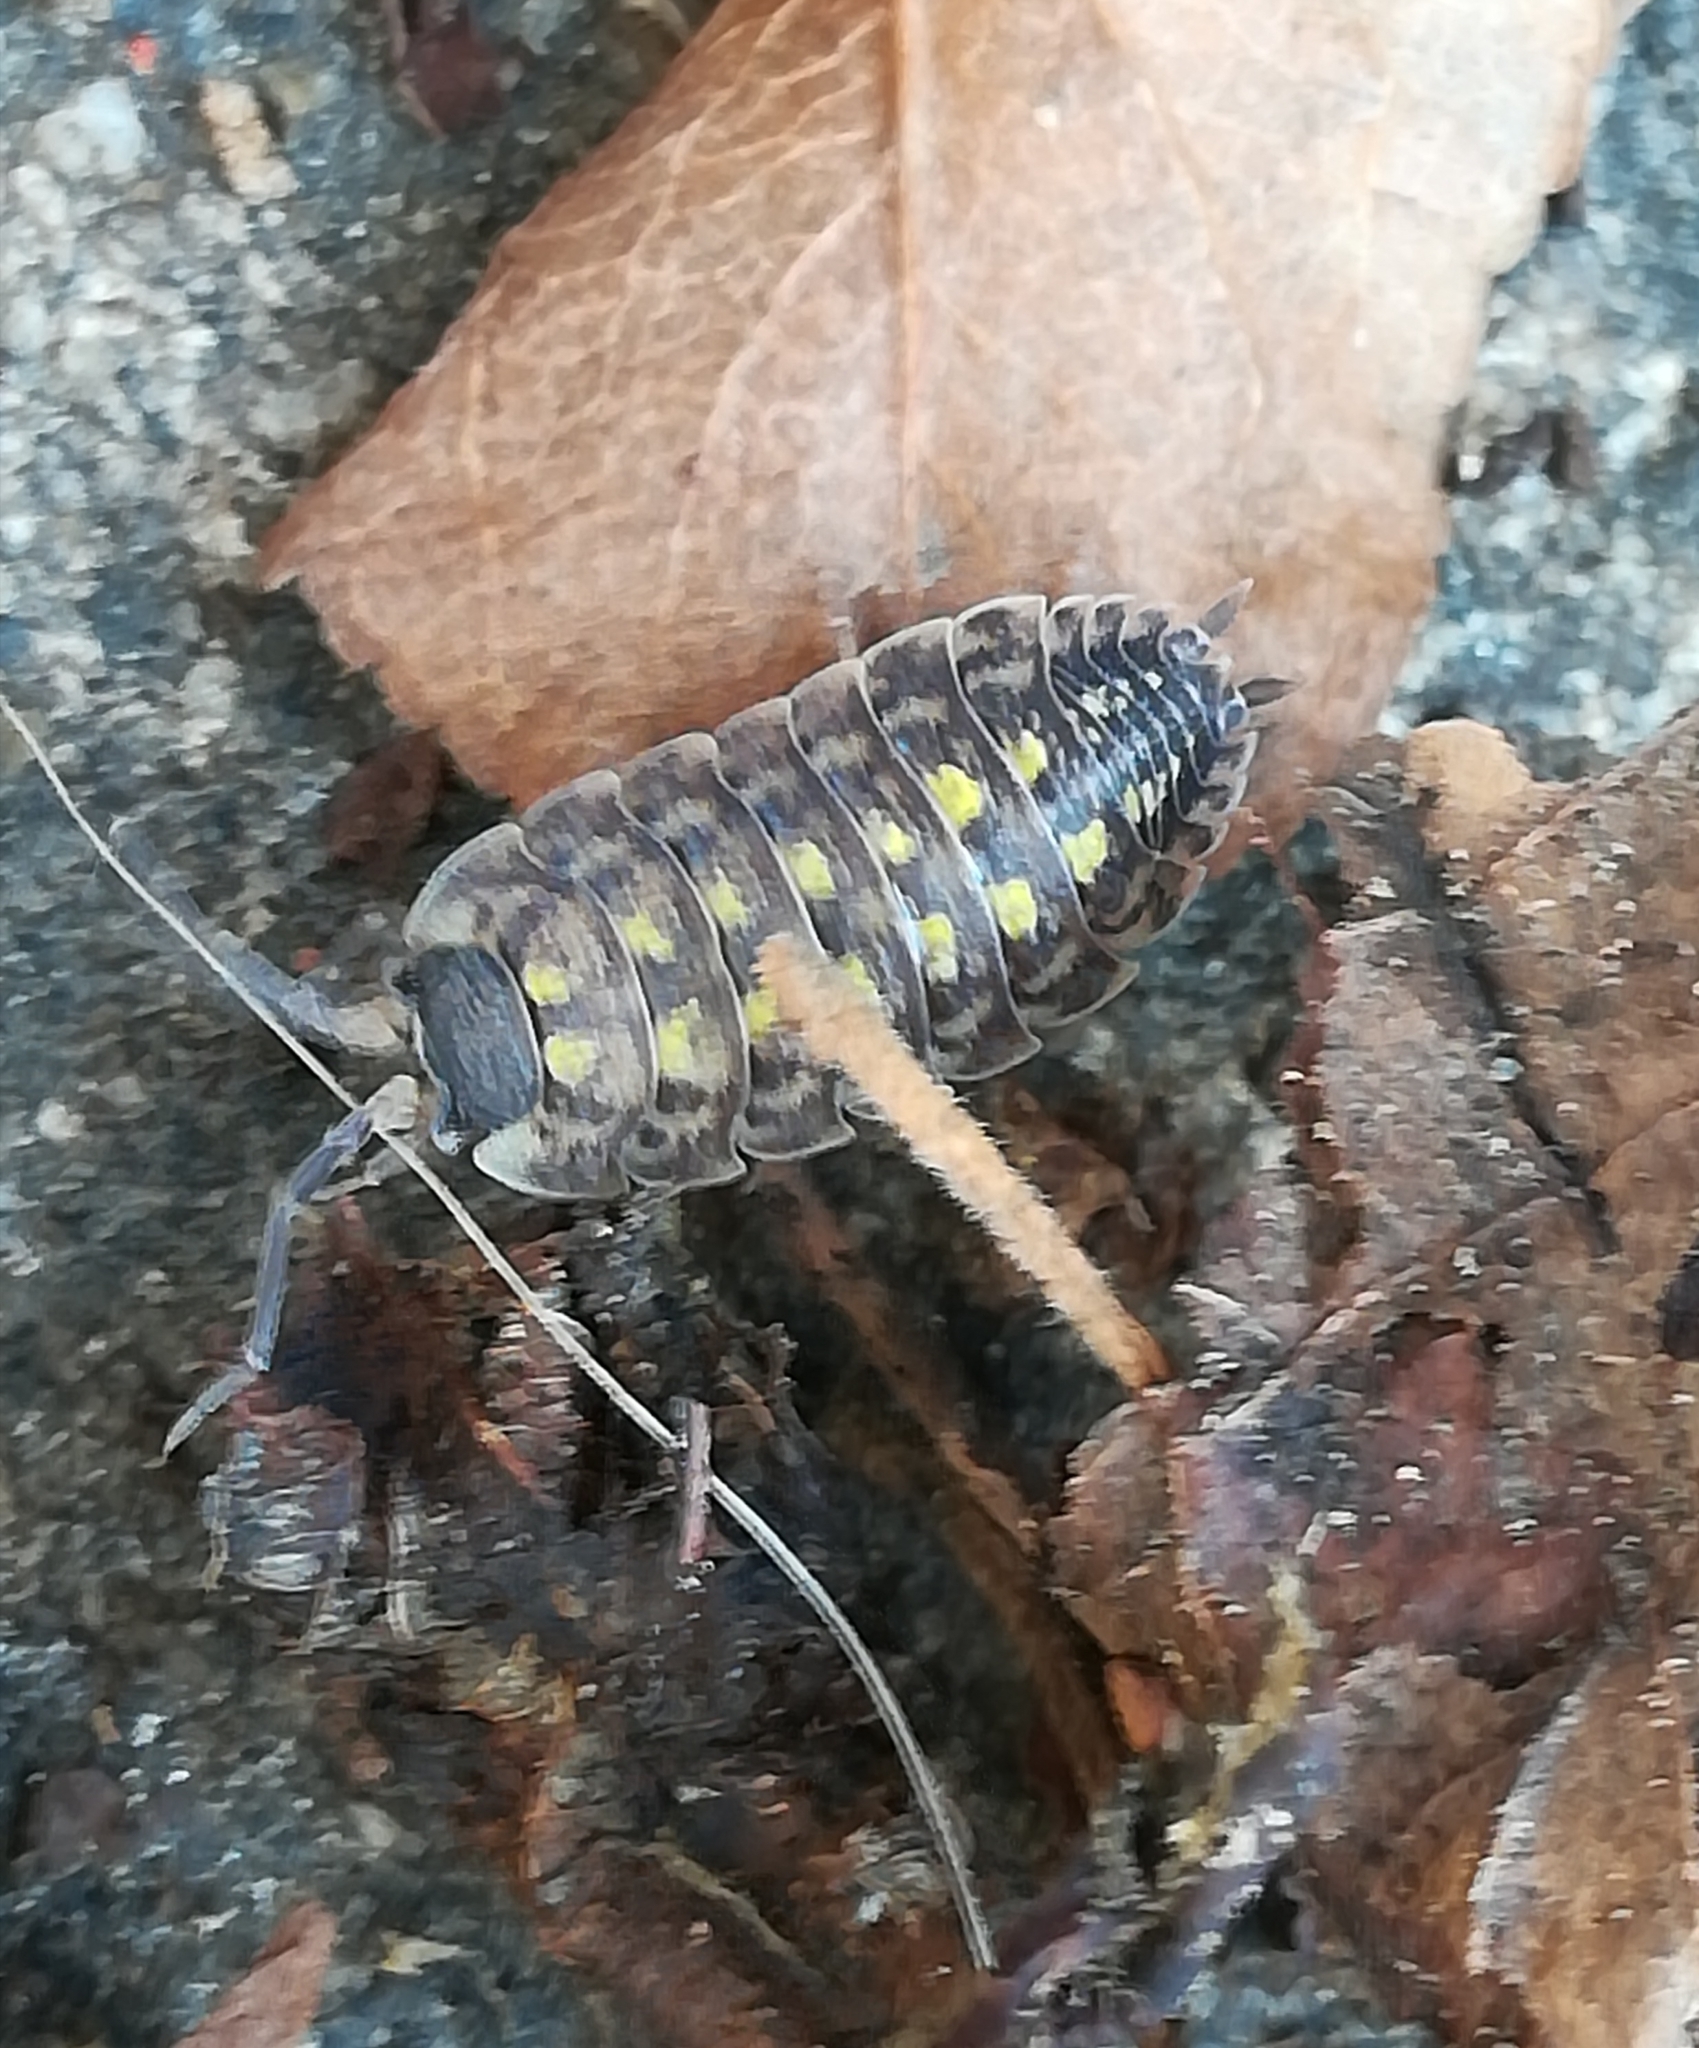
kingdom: Animalia
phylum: Arthropoda
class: Malacostraca
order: Isopoda
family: Porcellionidae
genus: Porcellio
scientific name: Porcellio spinicornis
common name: Painted woodlouse
